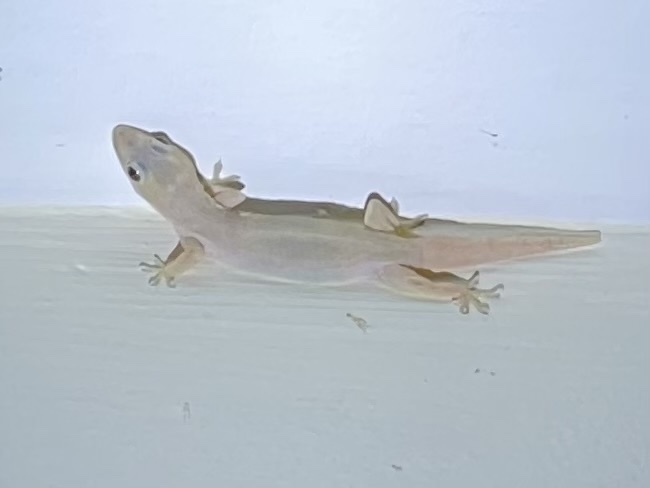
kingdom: Animalia
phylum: Chordata
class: Squamata
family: Gekkonidae
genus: Hemidactylus
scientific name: Hemidactylus frenatus
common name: Common house gecko
